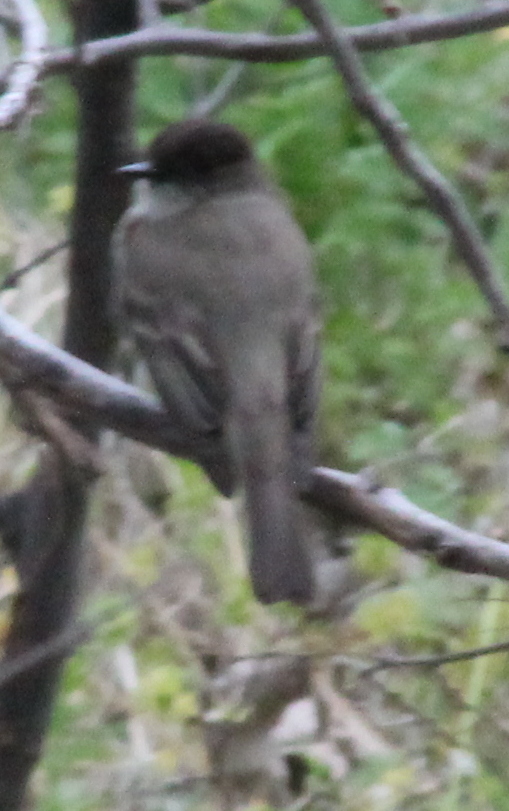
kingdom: Animalia
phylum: Chordata
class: Aves
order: Passeriformes
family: Tyrannidae
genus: Sayornis
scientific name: Sayornis phoebe
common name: Eastern phoebe
